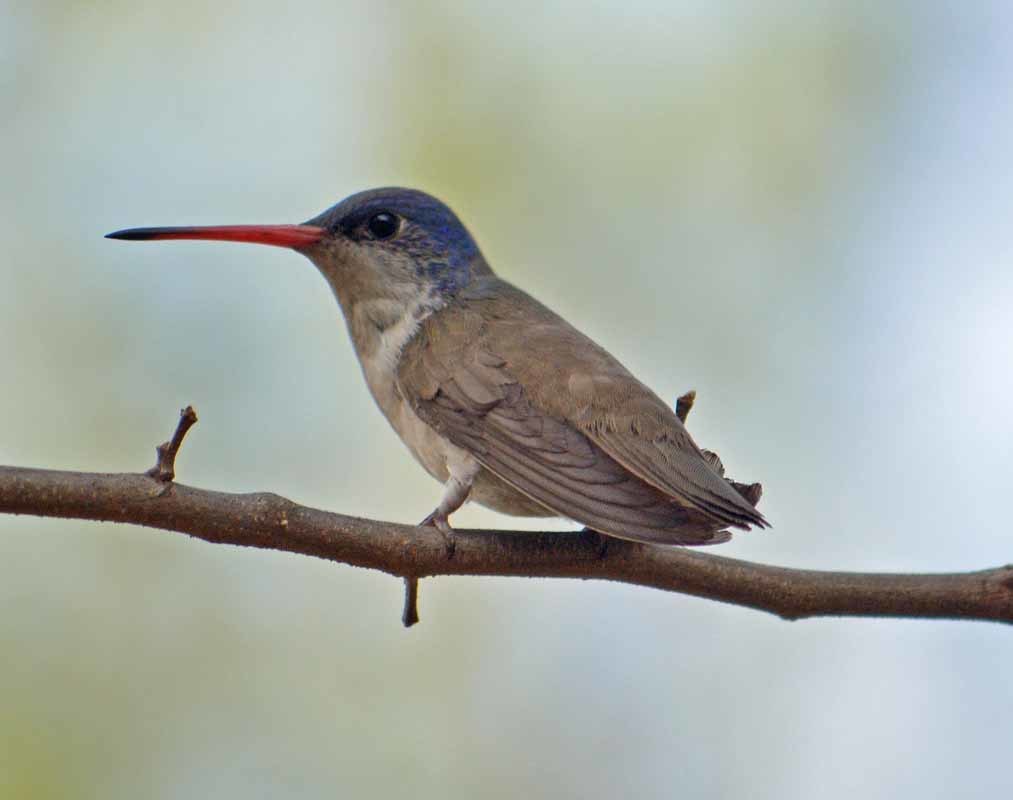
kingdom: Animalia
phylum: Chordata
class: Aves
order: Apodiformes
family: Trochilidae
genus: Leucolia
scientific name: Leucolia violiceps
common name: Violet-crowned hummingbird
